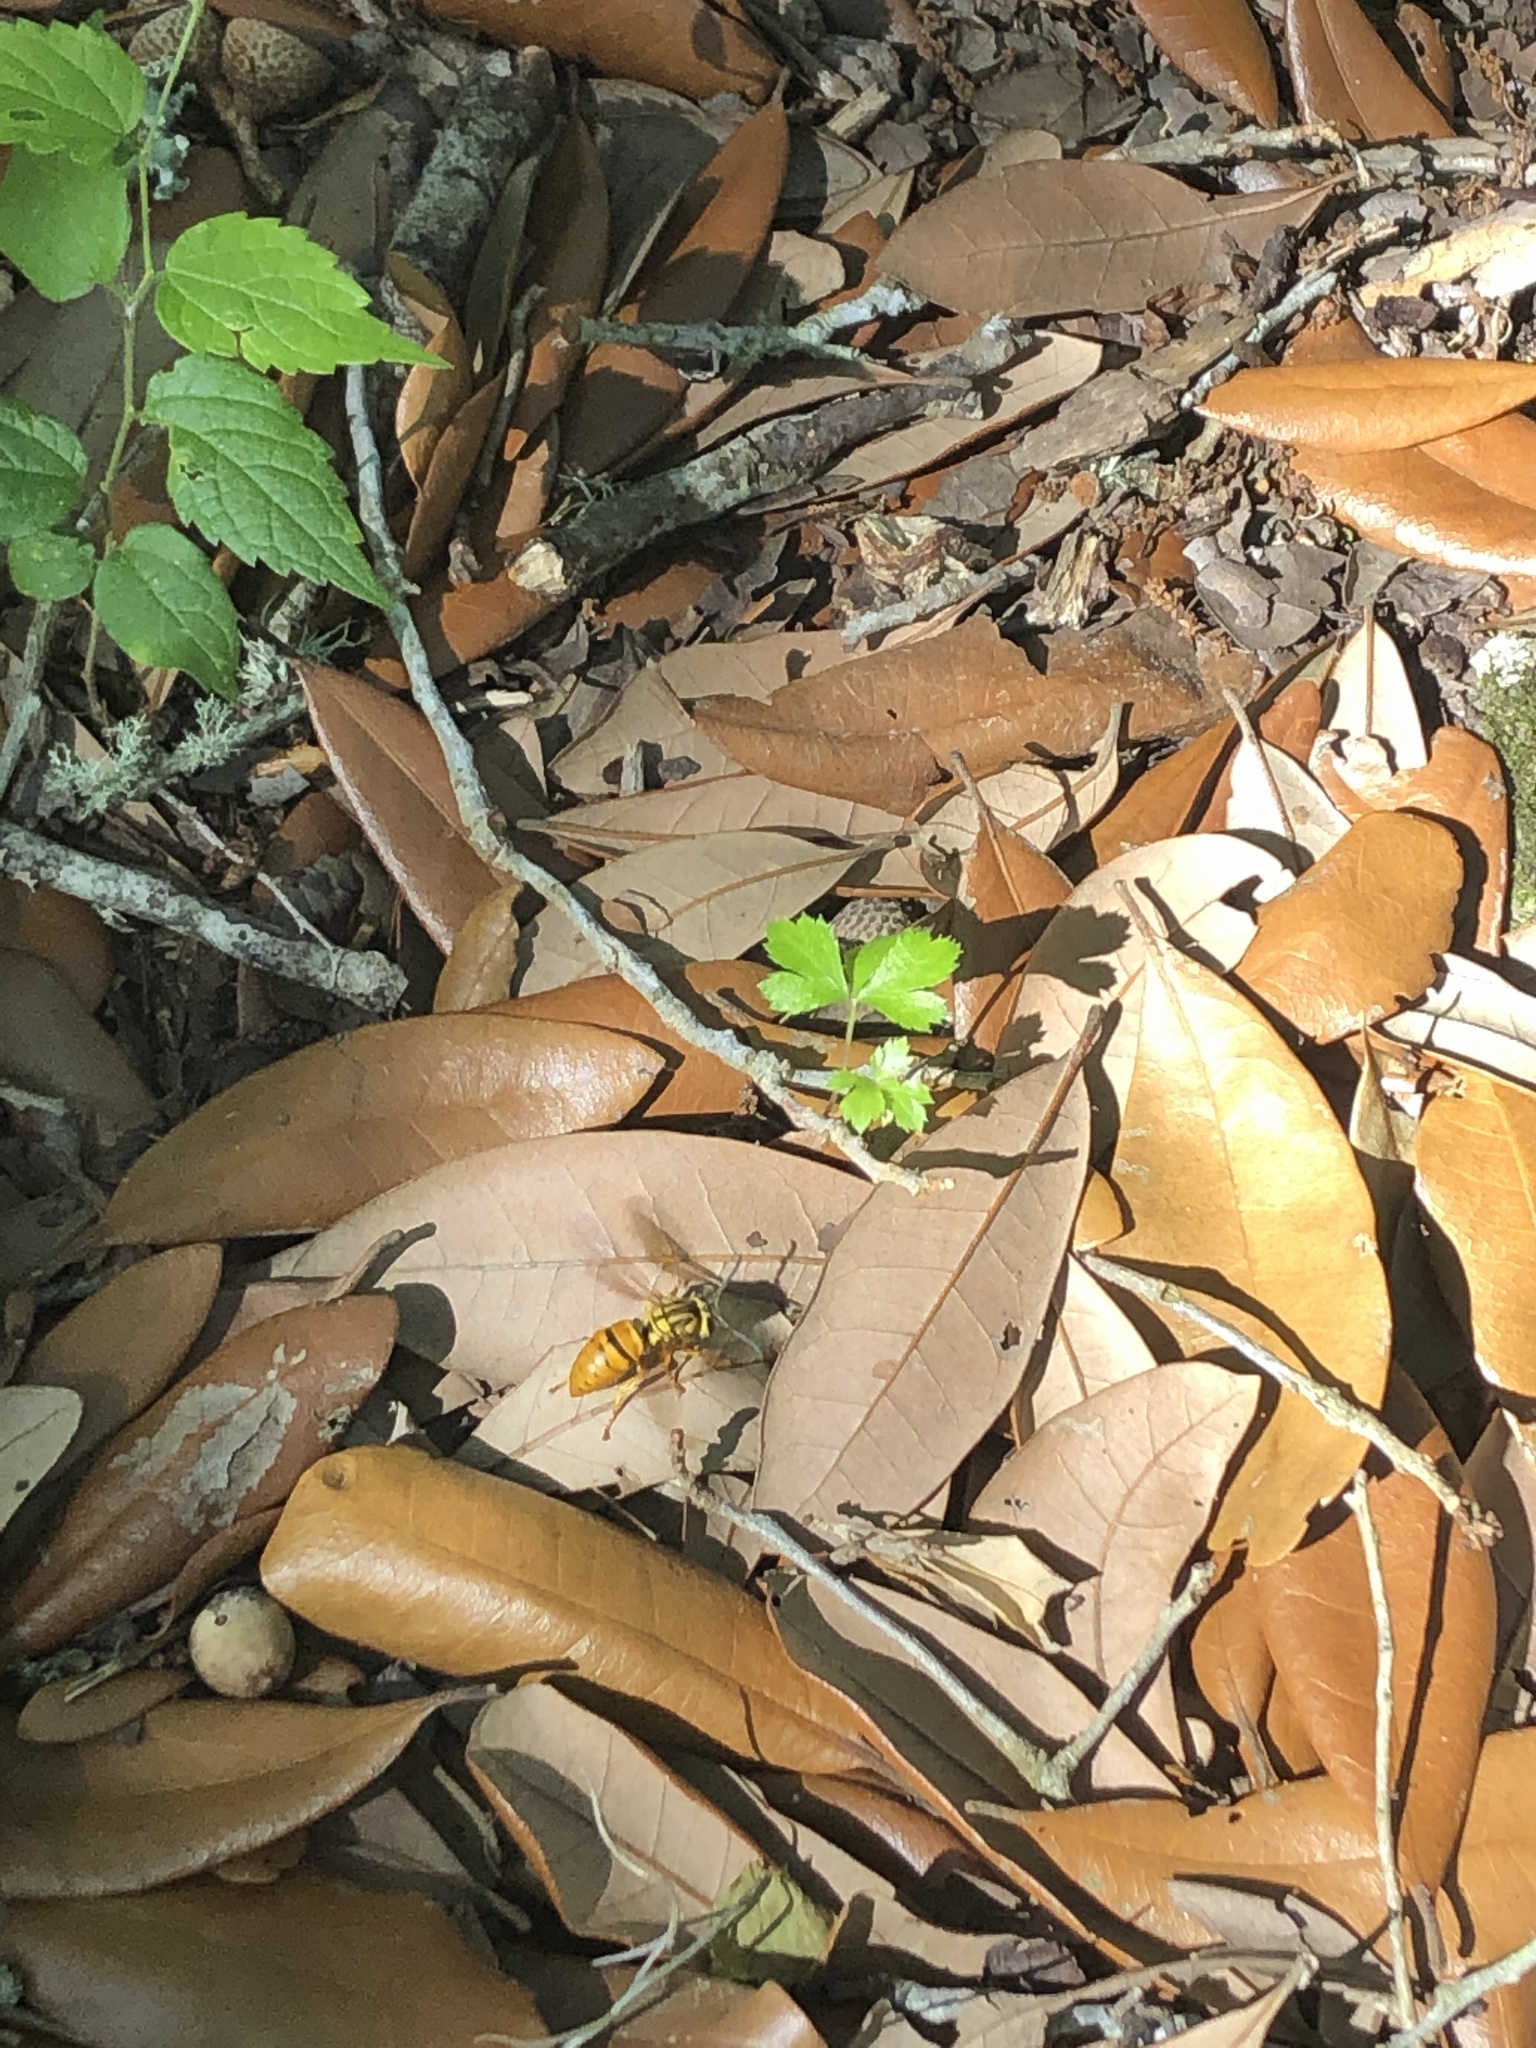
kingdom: Animalia
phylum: Arthropoda
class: Insecta
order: Hymenoptera
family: Vespidae
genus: Vespula
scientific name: Vespula squamosa
